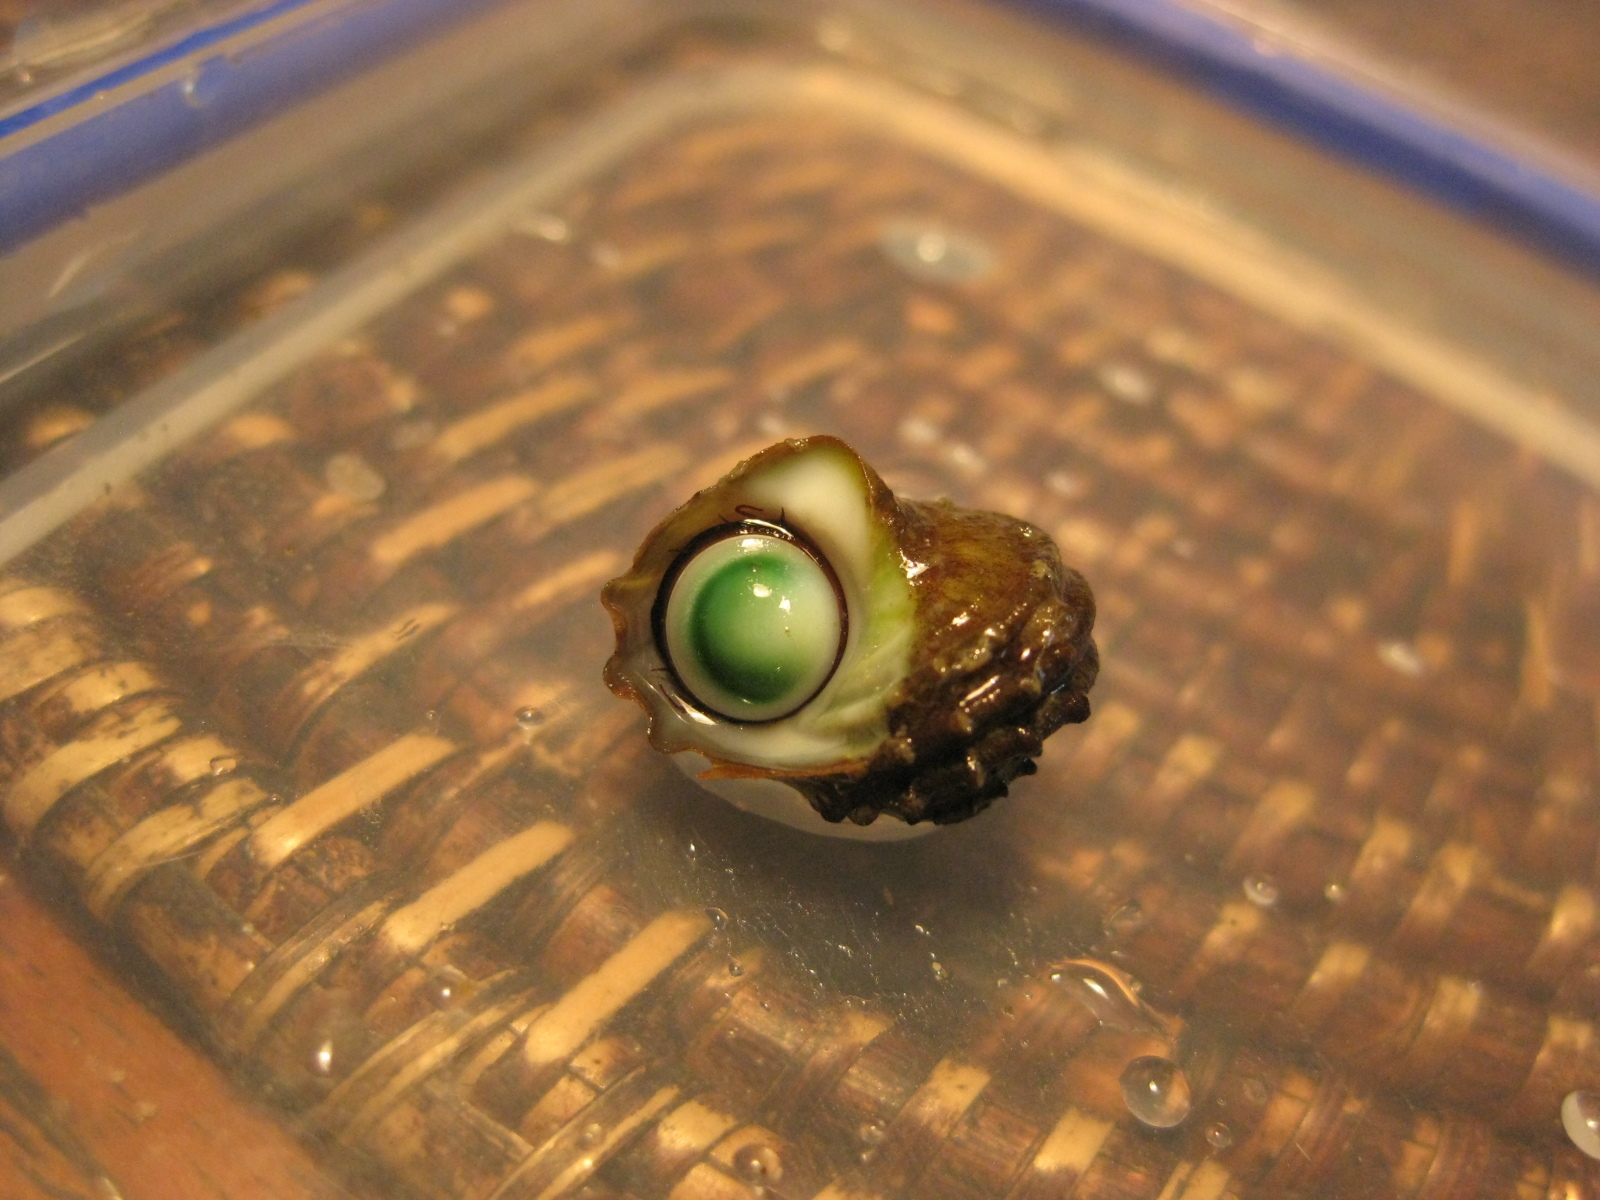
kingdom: Animalia
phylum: Mollusca
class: Gastropoda
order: Trochida
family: Turbinidae
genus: Lunella
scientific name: Lunella smaragda
